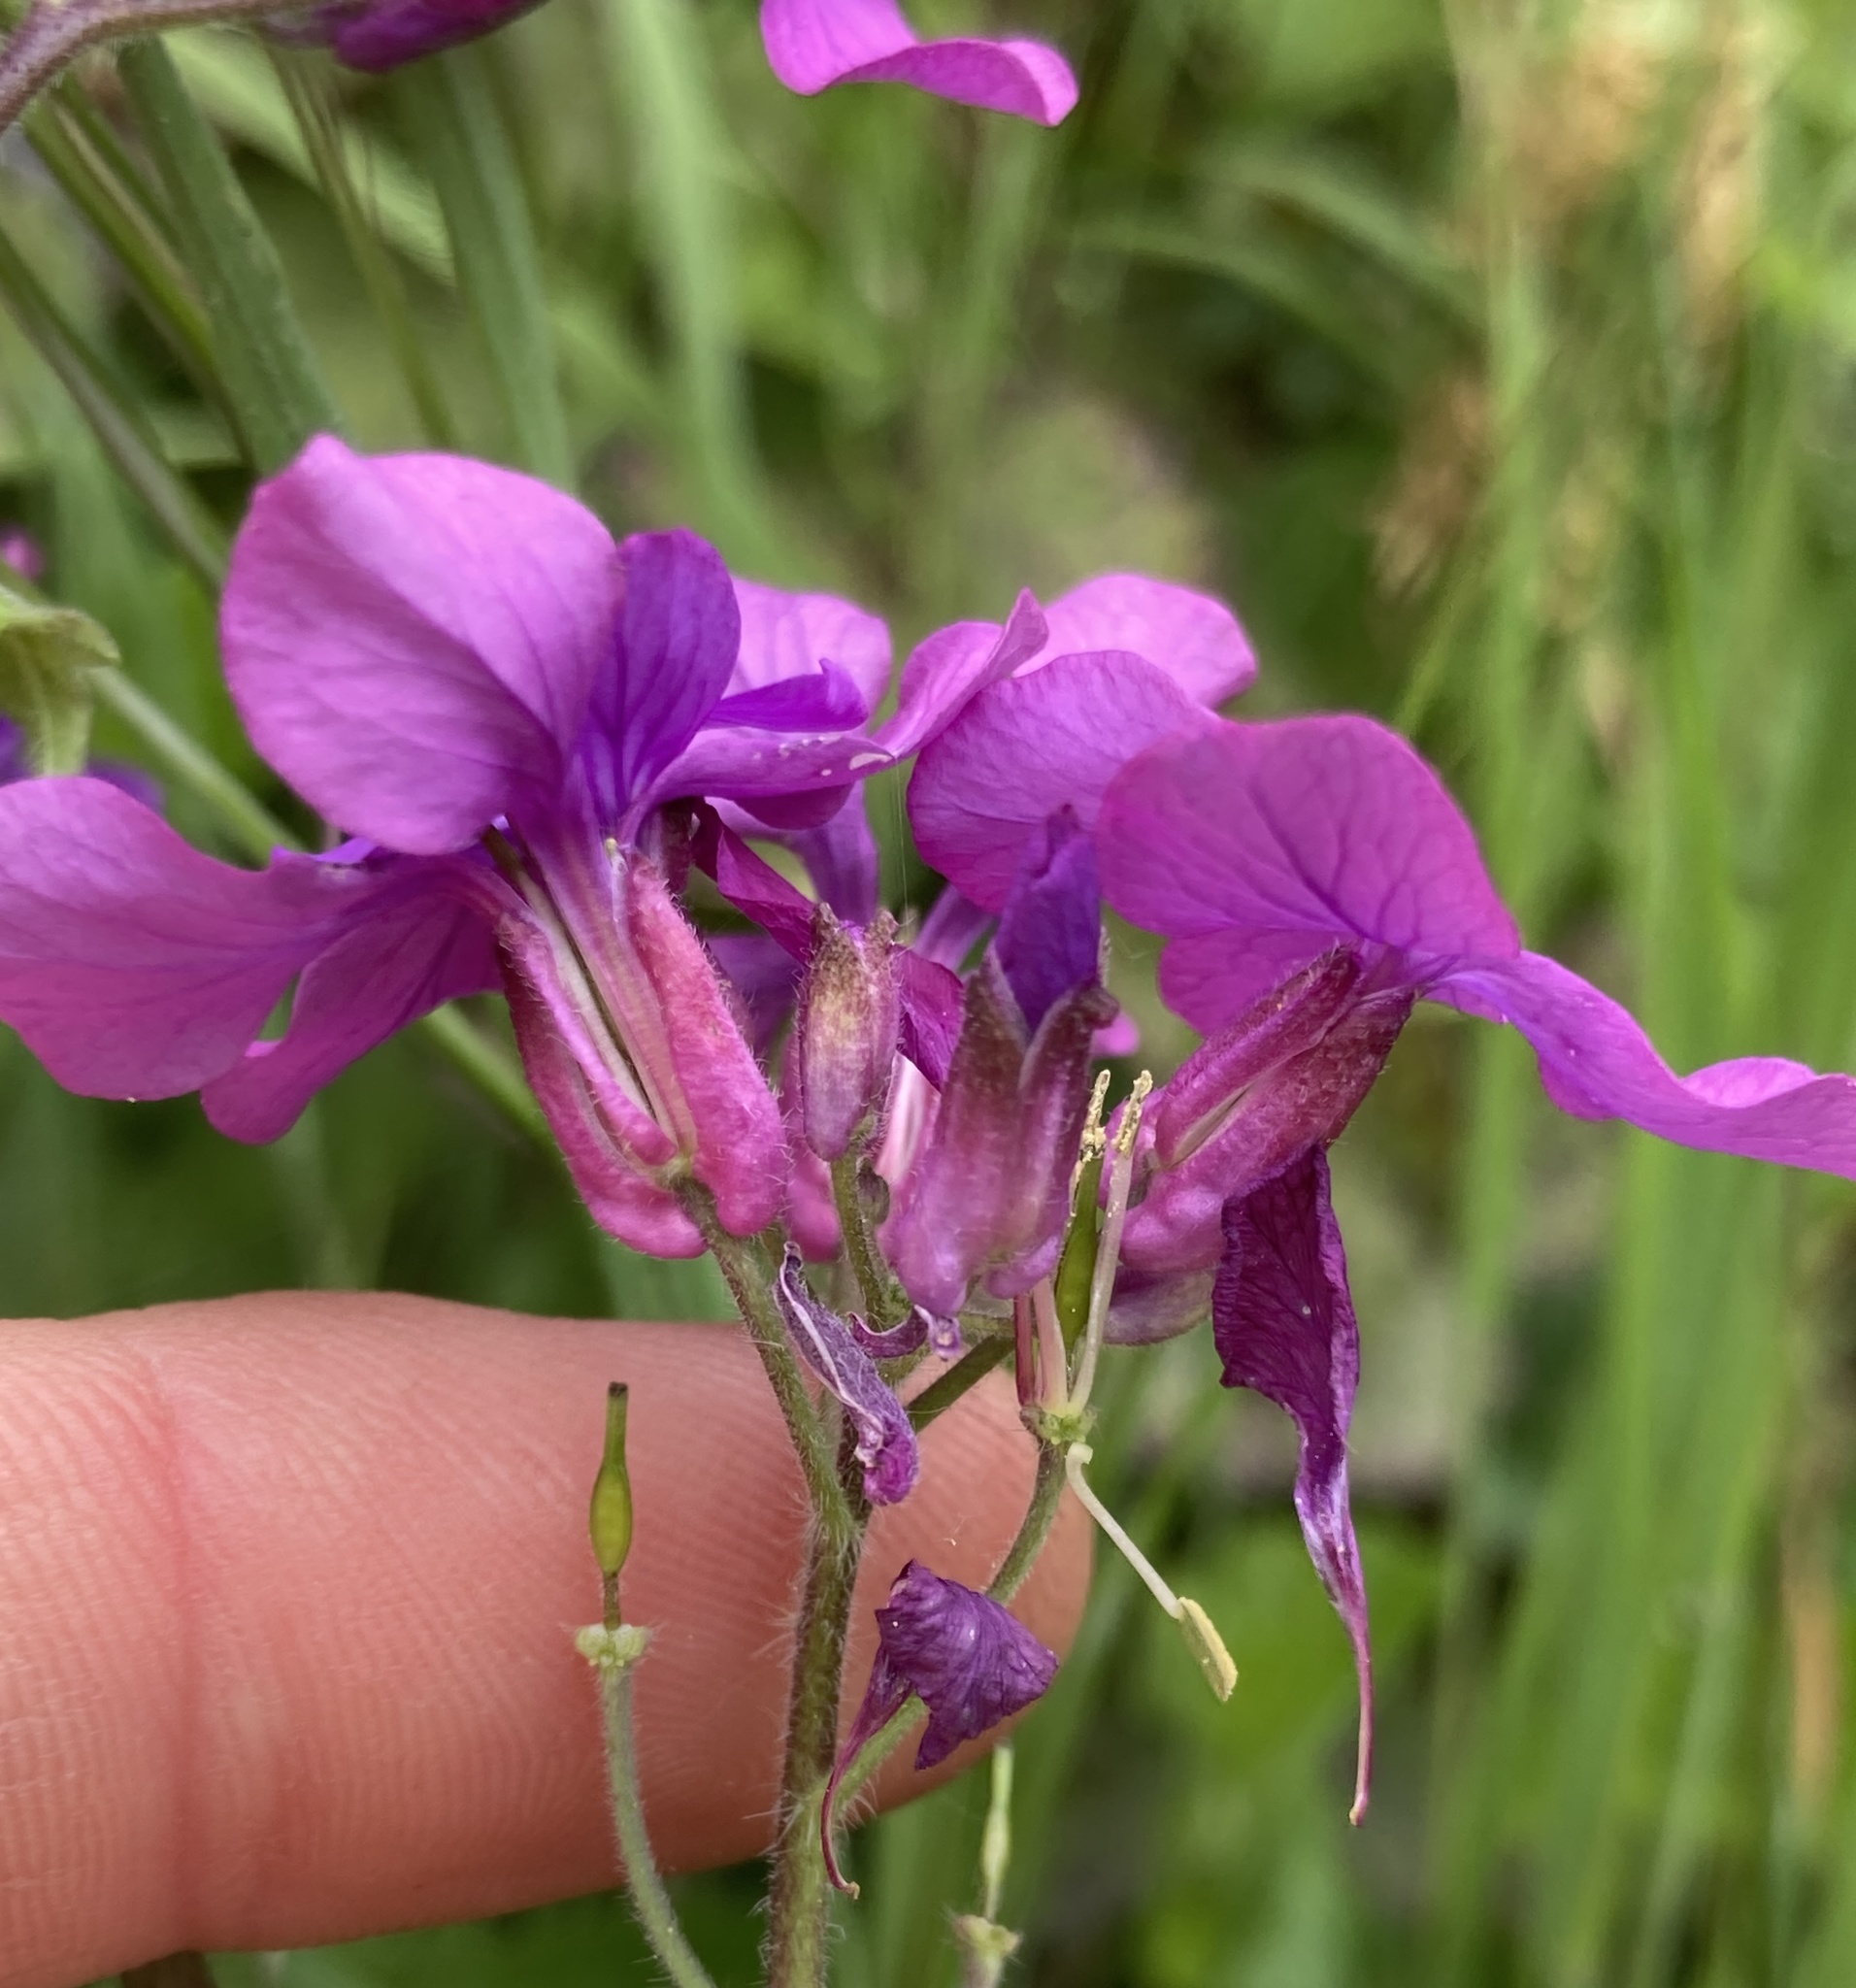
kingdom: Plantae
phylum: Tracheophyta
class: Magnoliopsida
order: Brassicales
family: Brassicaceae
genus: Lunaria
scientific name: Lunaria annua
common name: Honesty
